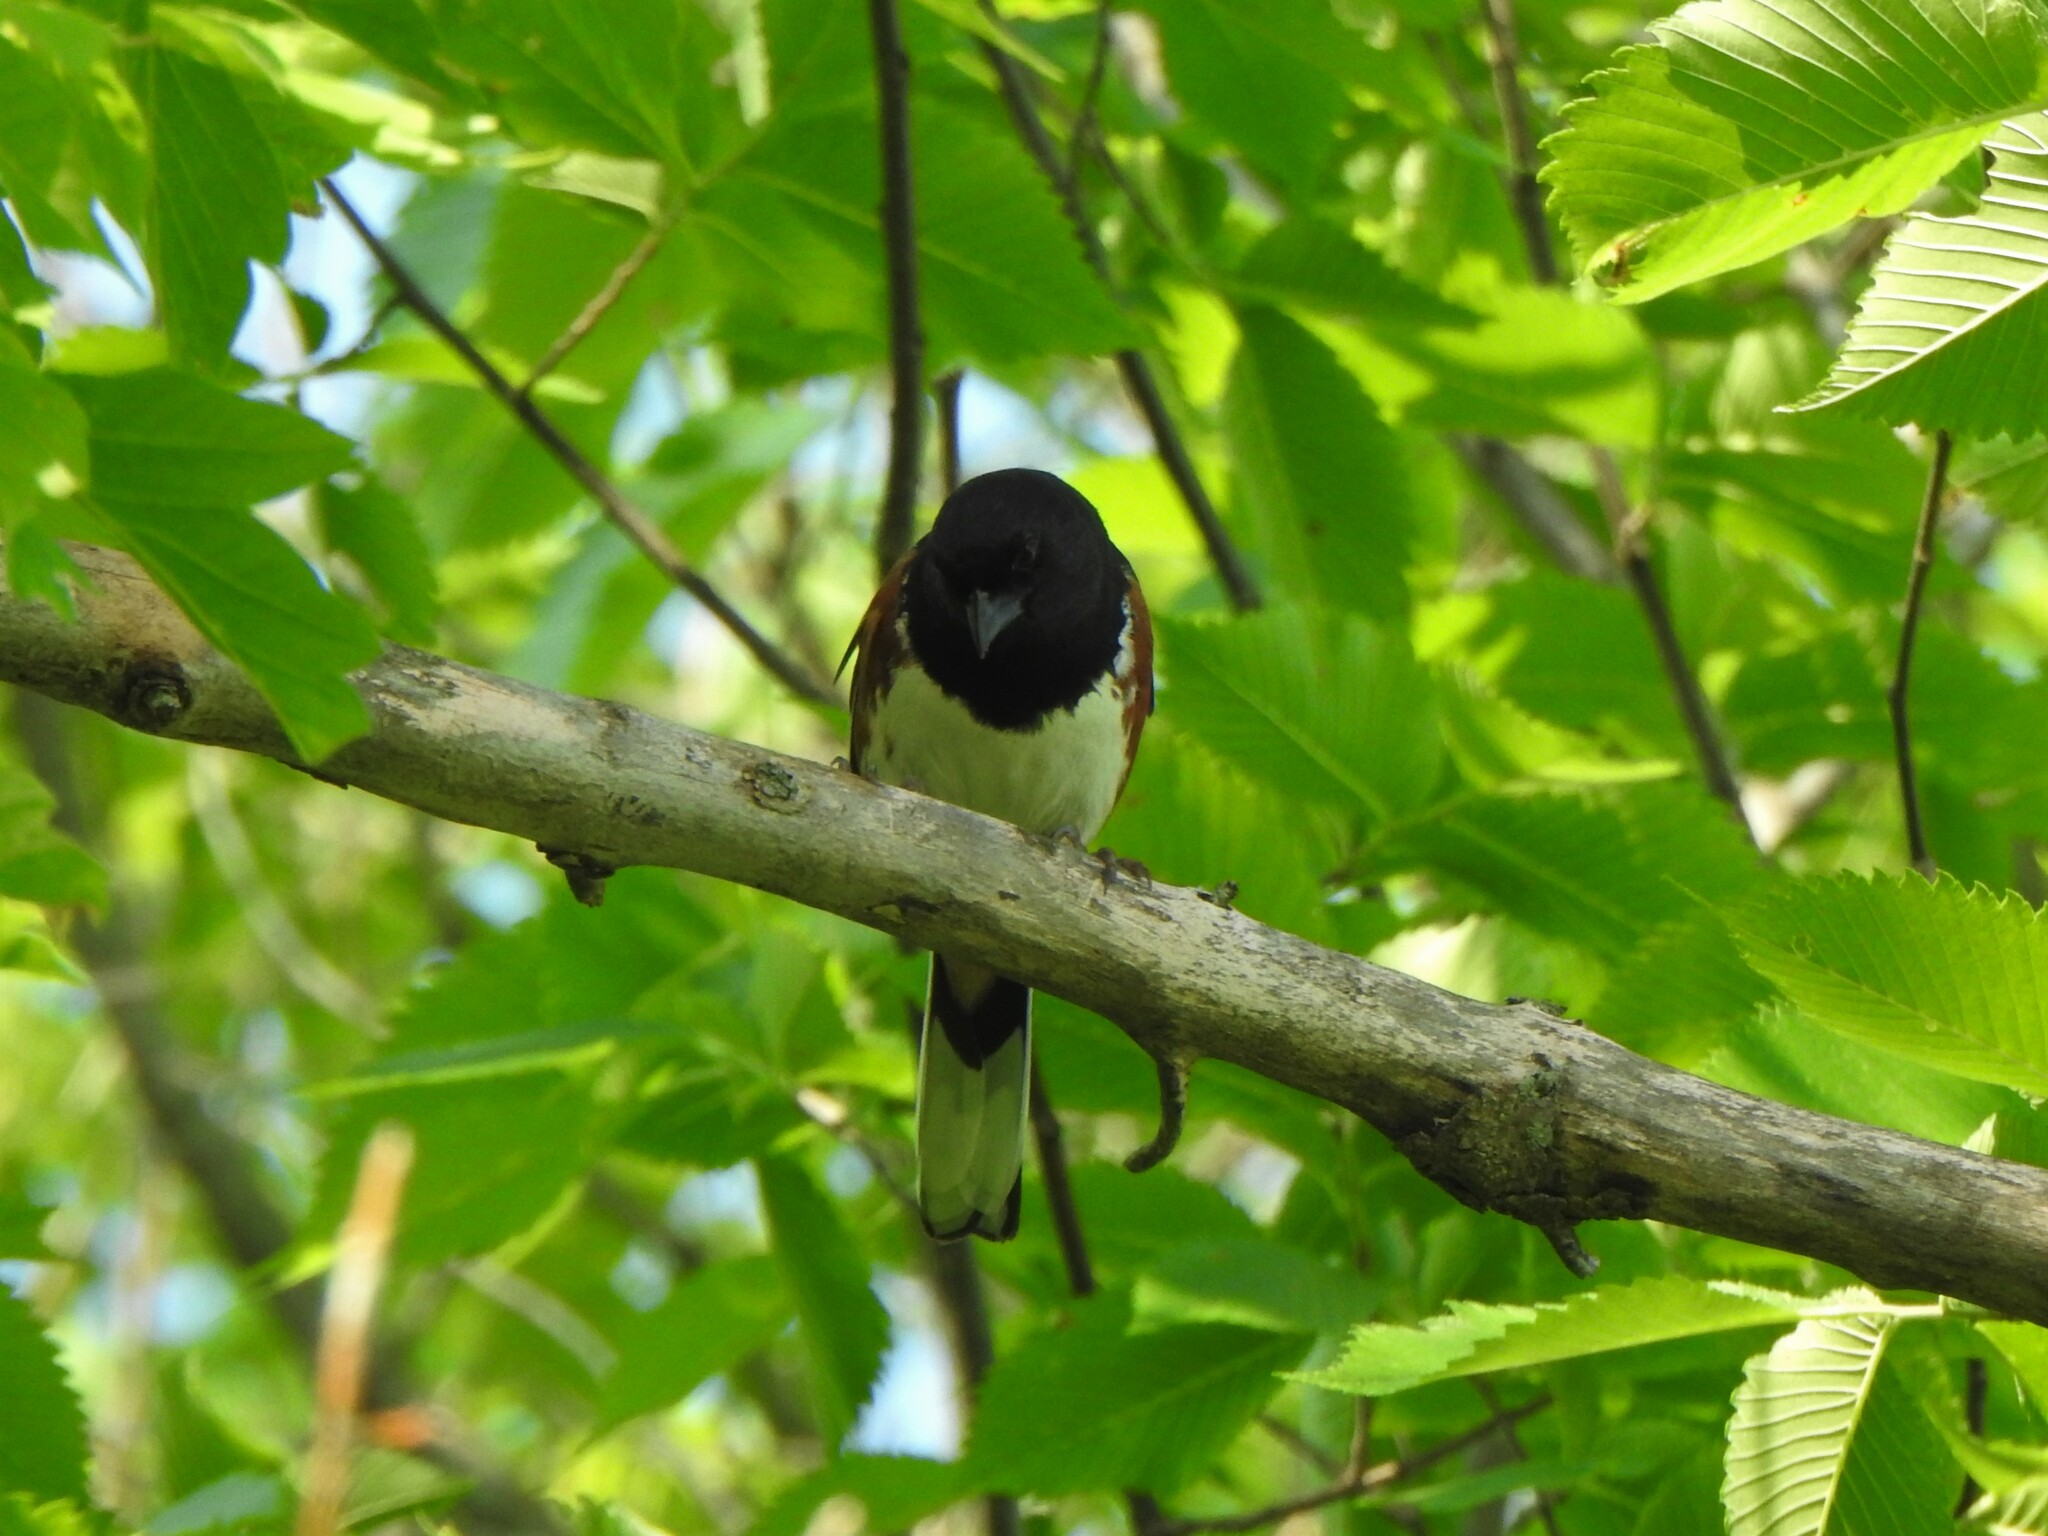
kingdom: Animalia
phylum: Chordata
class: Aves
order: Passeriformes
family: Passerellidae
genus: Pipilo
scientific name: Pipilo erythrophthalmus
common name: Eastern towhee
